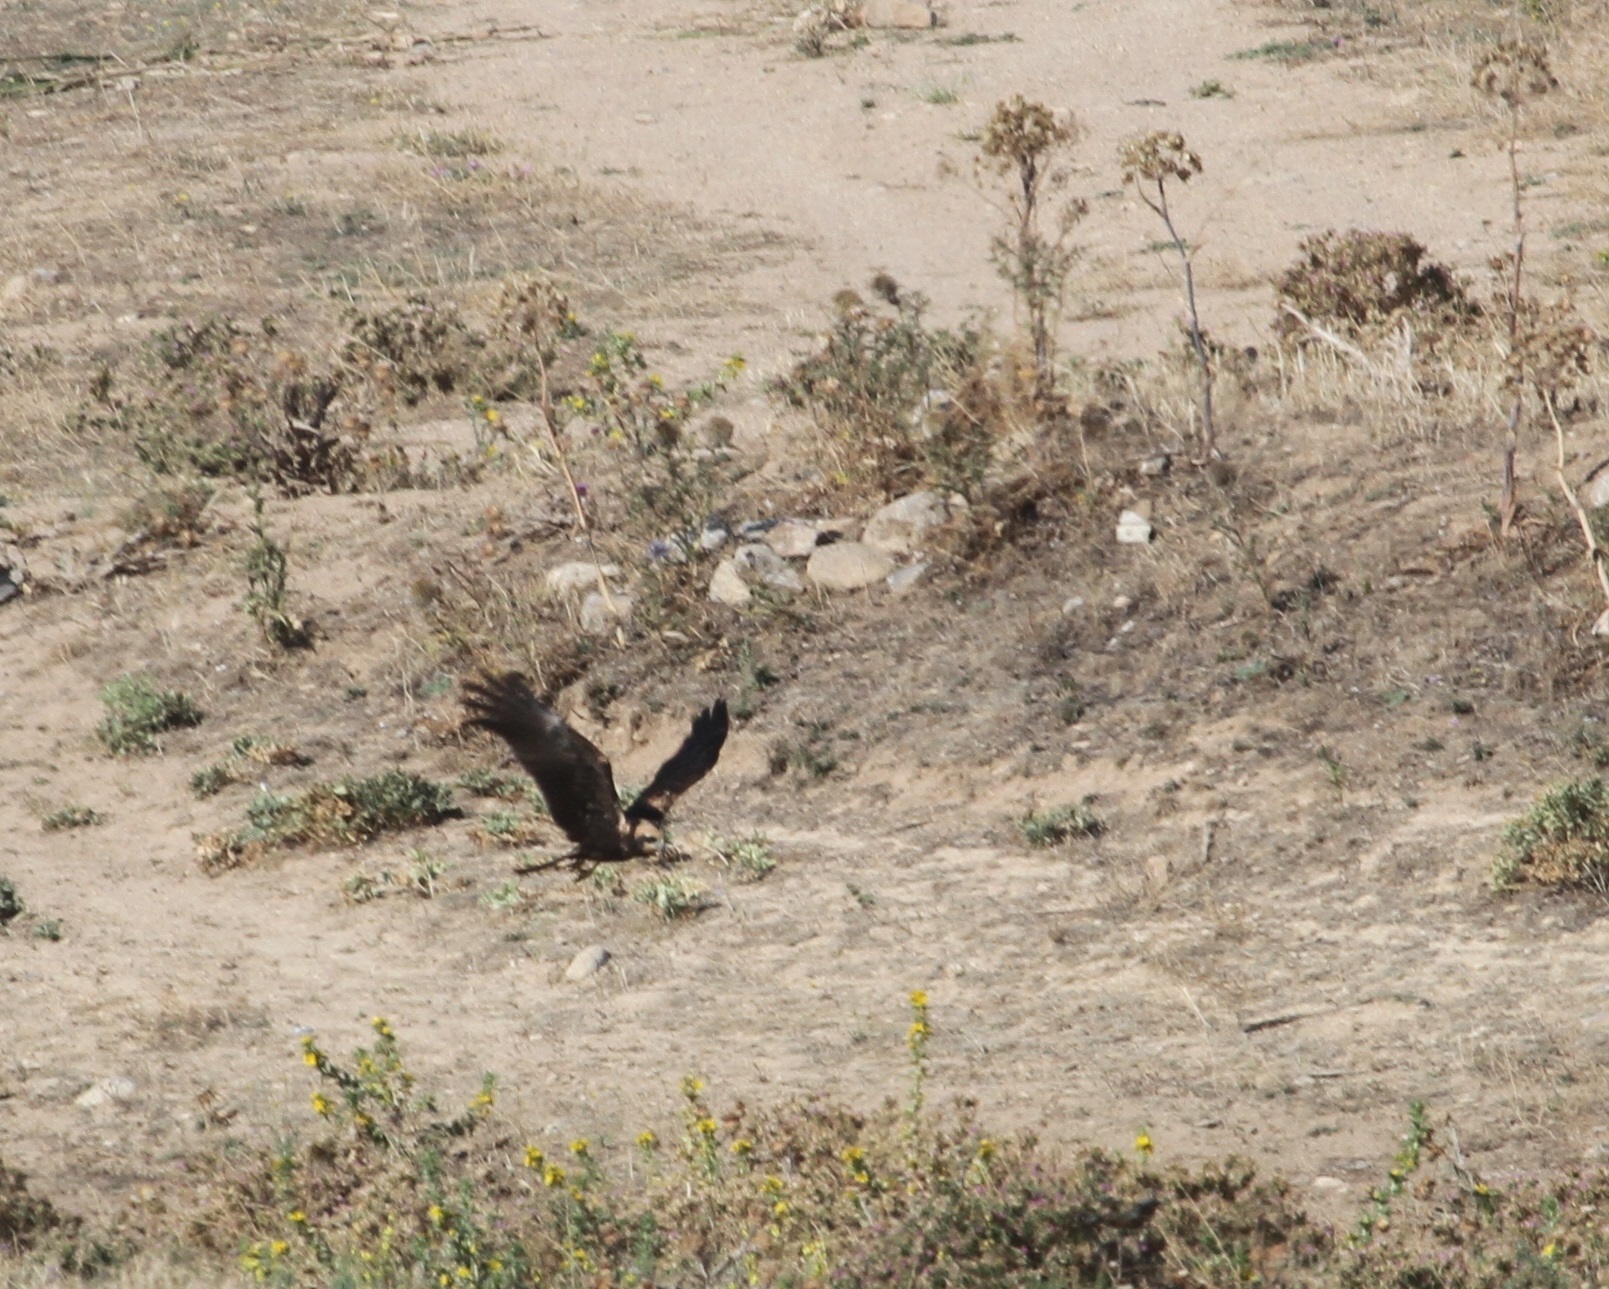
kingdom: Animalia
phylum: Chordata
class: Aves
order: Accipitriformes
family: Accipitridae
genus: Circus
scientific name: Circus aeruginosus
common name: Western marsh harrier
